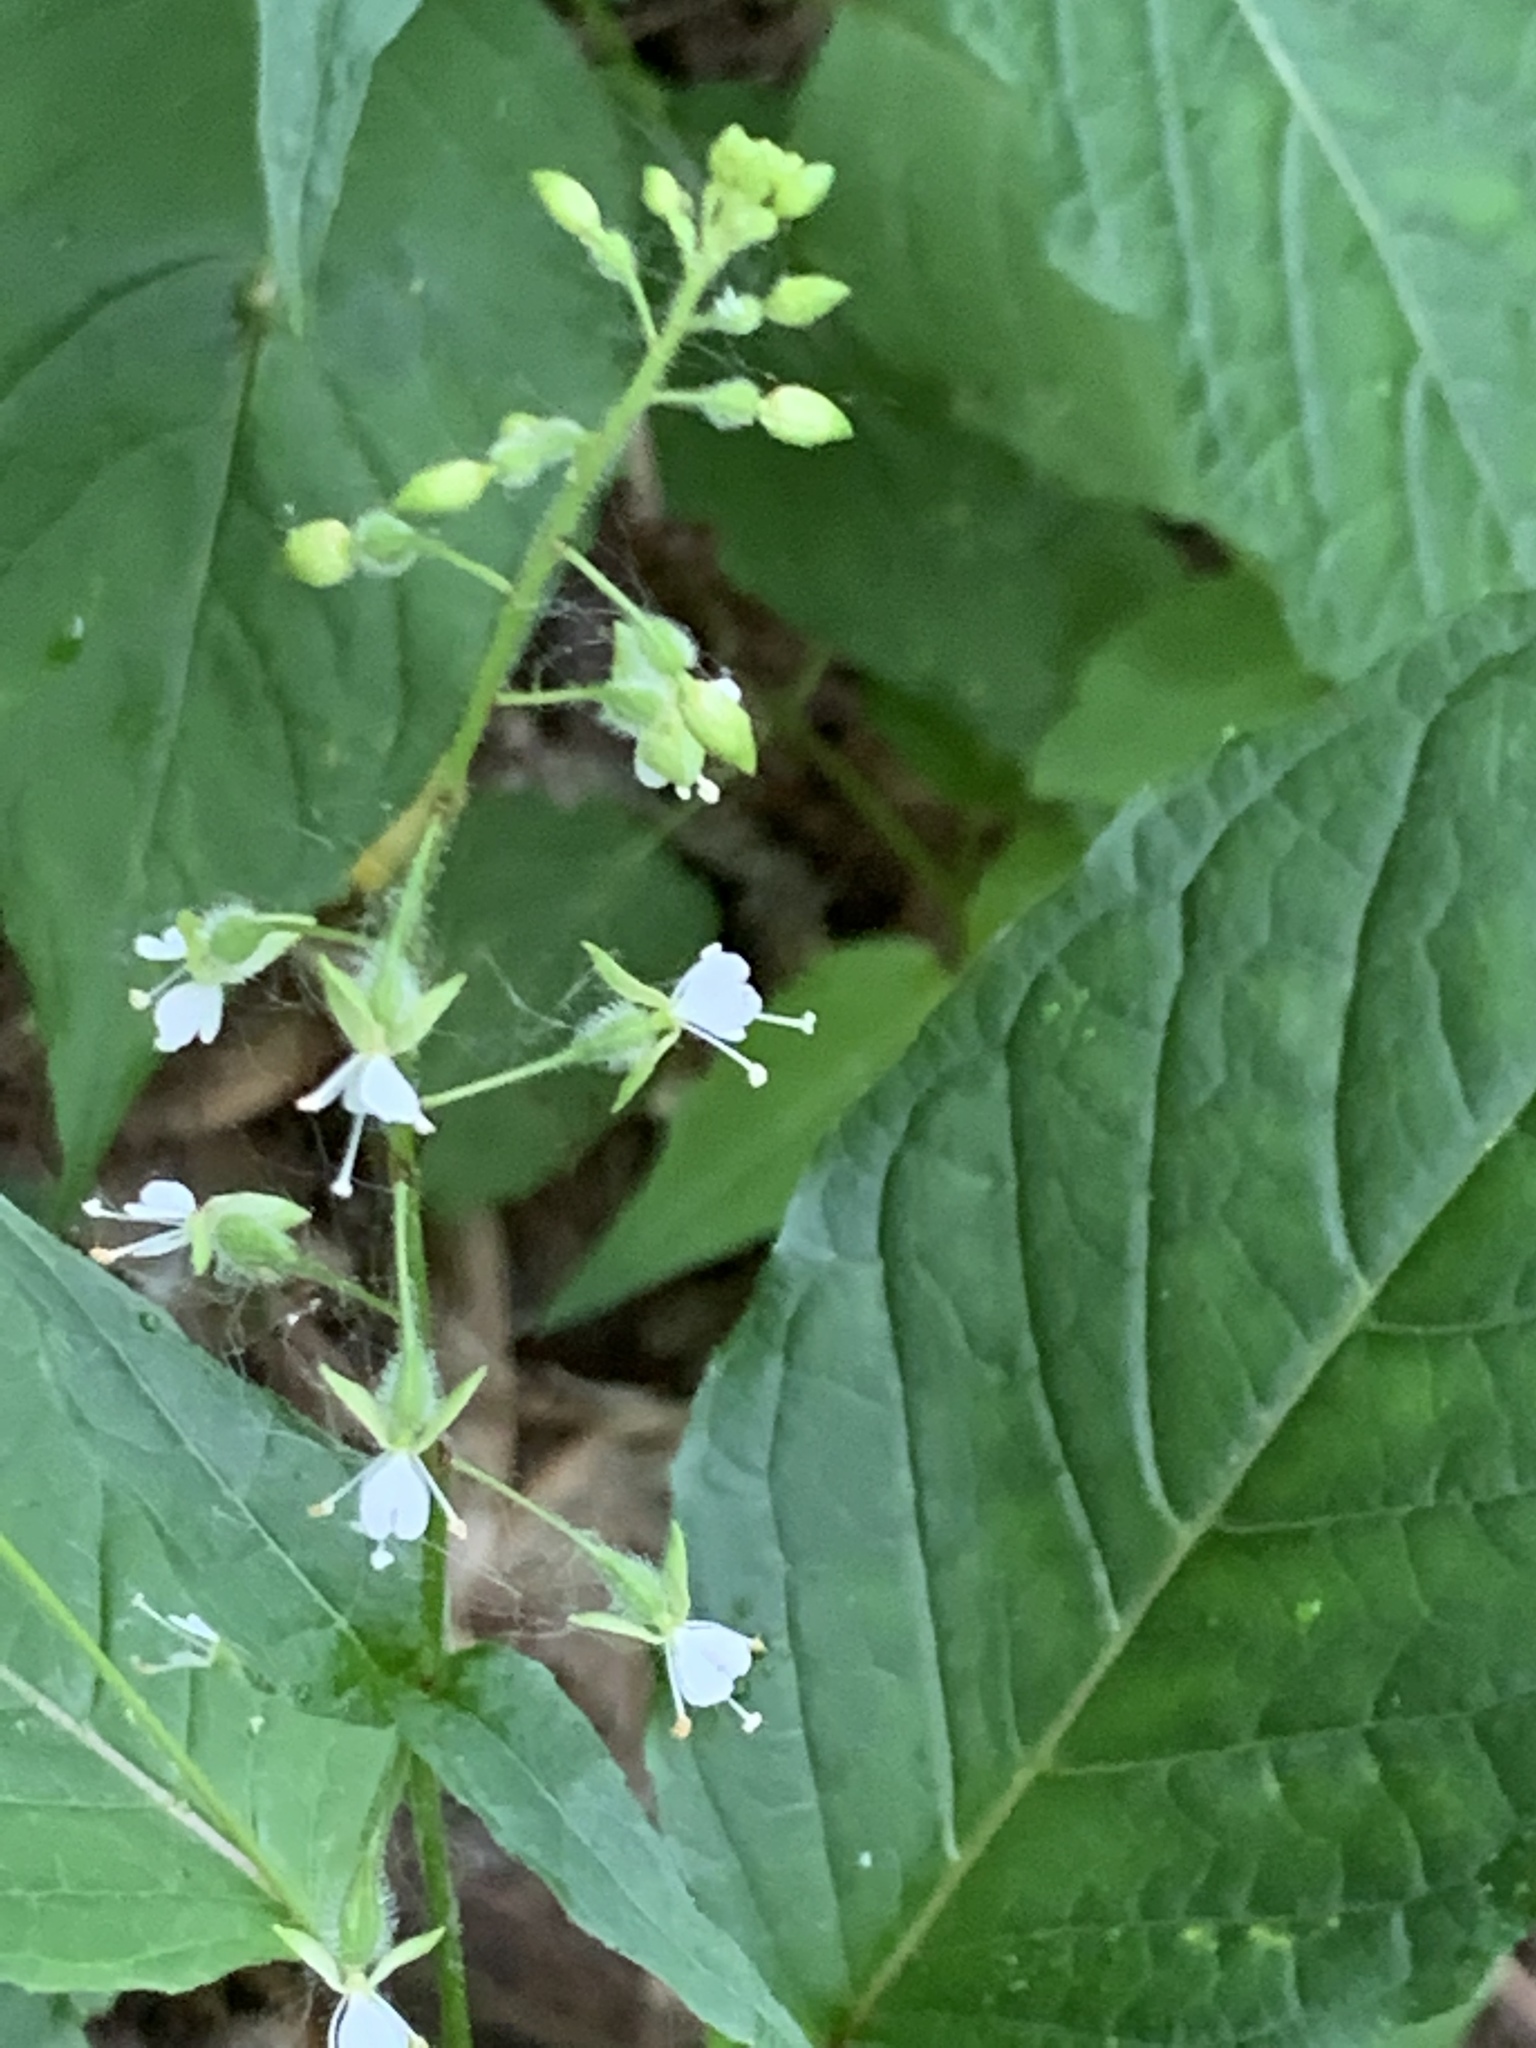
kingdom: Plantae
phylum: Tracheophyta
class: Magnoliopsida
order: Myrtales
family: Onagraceae
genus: Circaea
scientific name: Circaea canadensis
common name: Broad-leaved enchanter's nightshade
